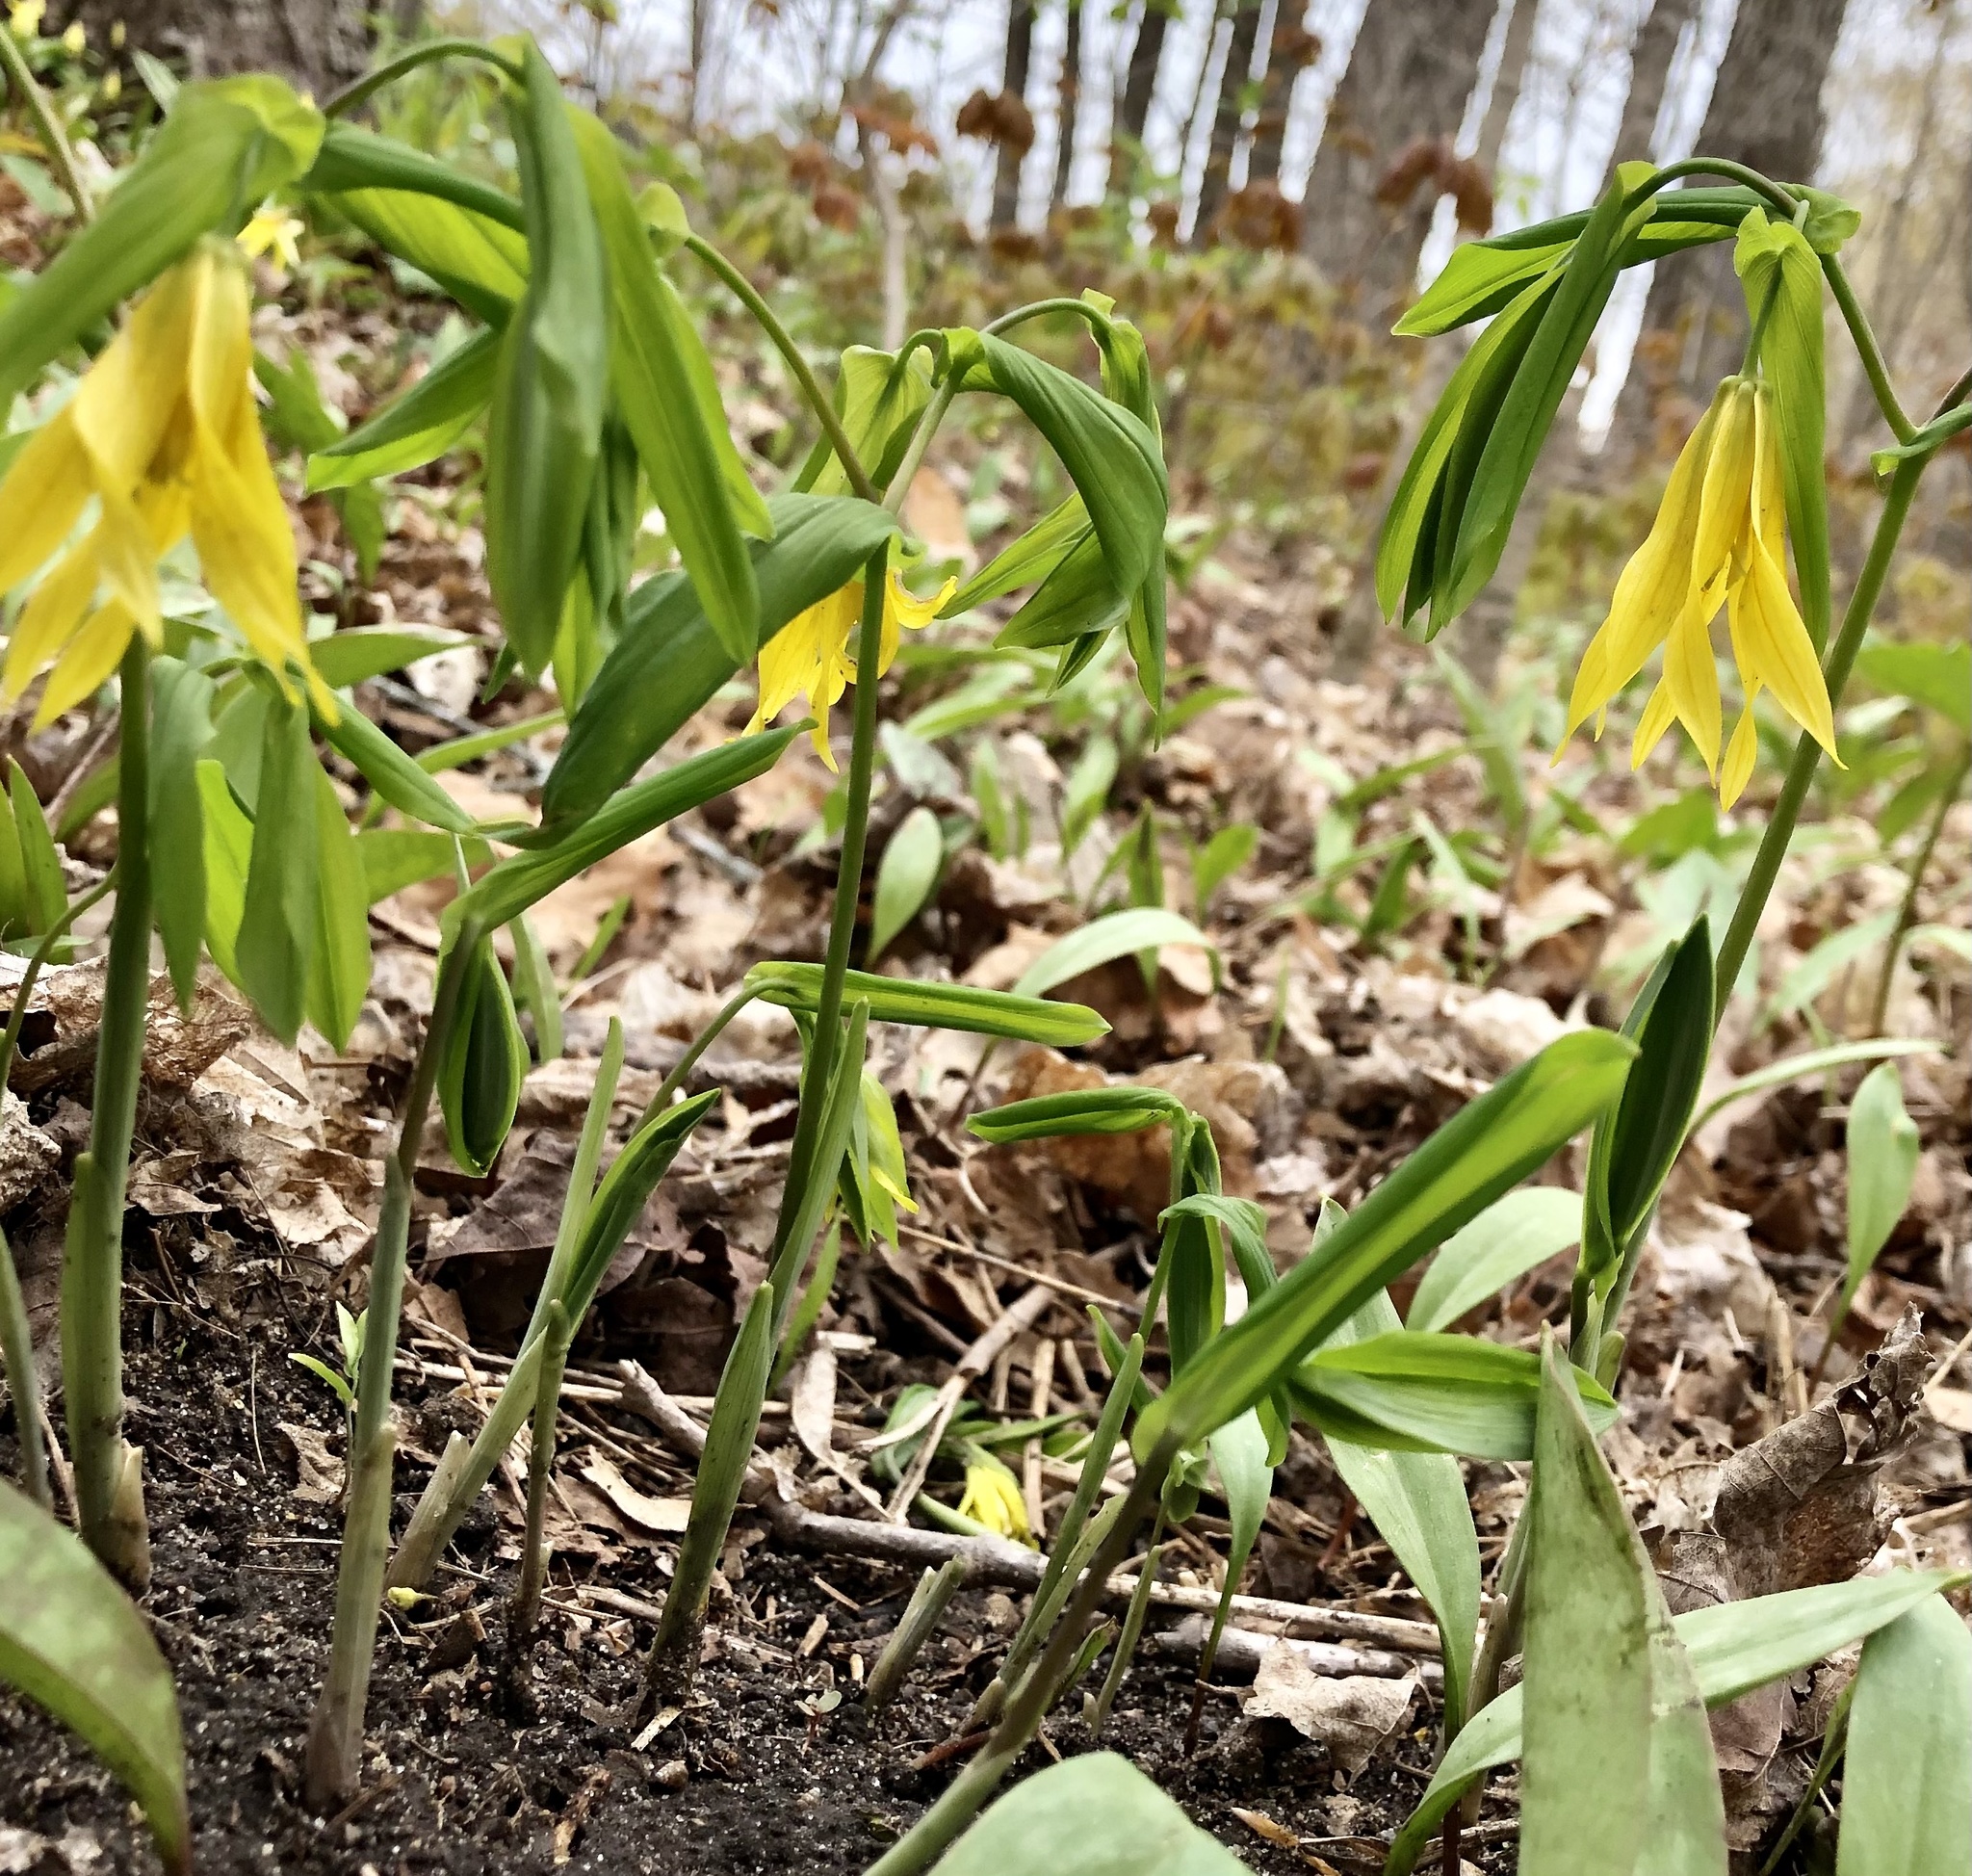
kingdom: Plantae
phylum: Tracheophyta
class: Liliopsida
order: Liliales
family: Colchicaceae
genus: Uvularia
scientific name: Uvularia grandiflora
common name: Bellwort
